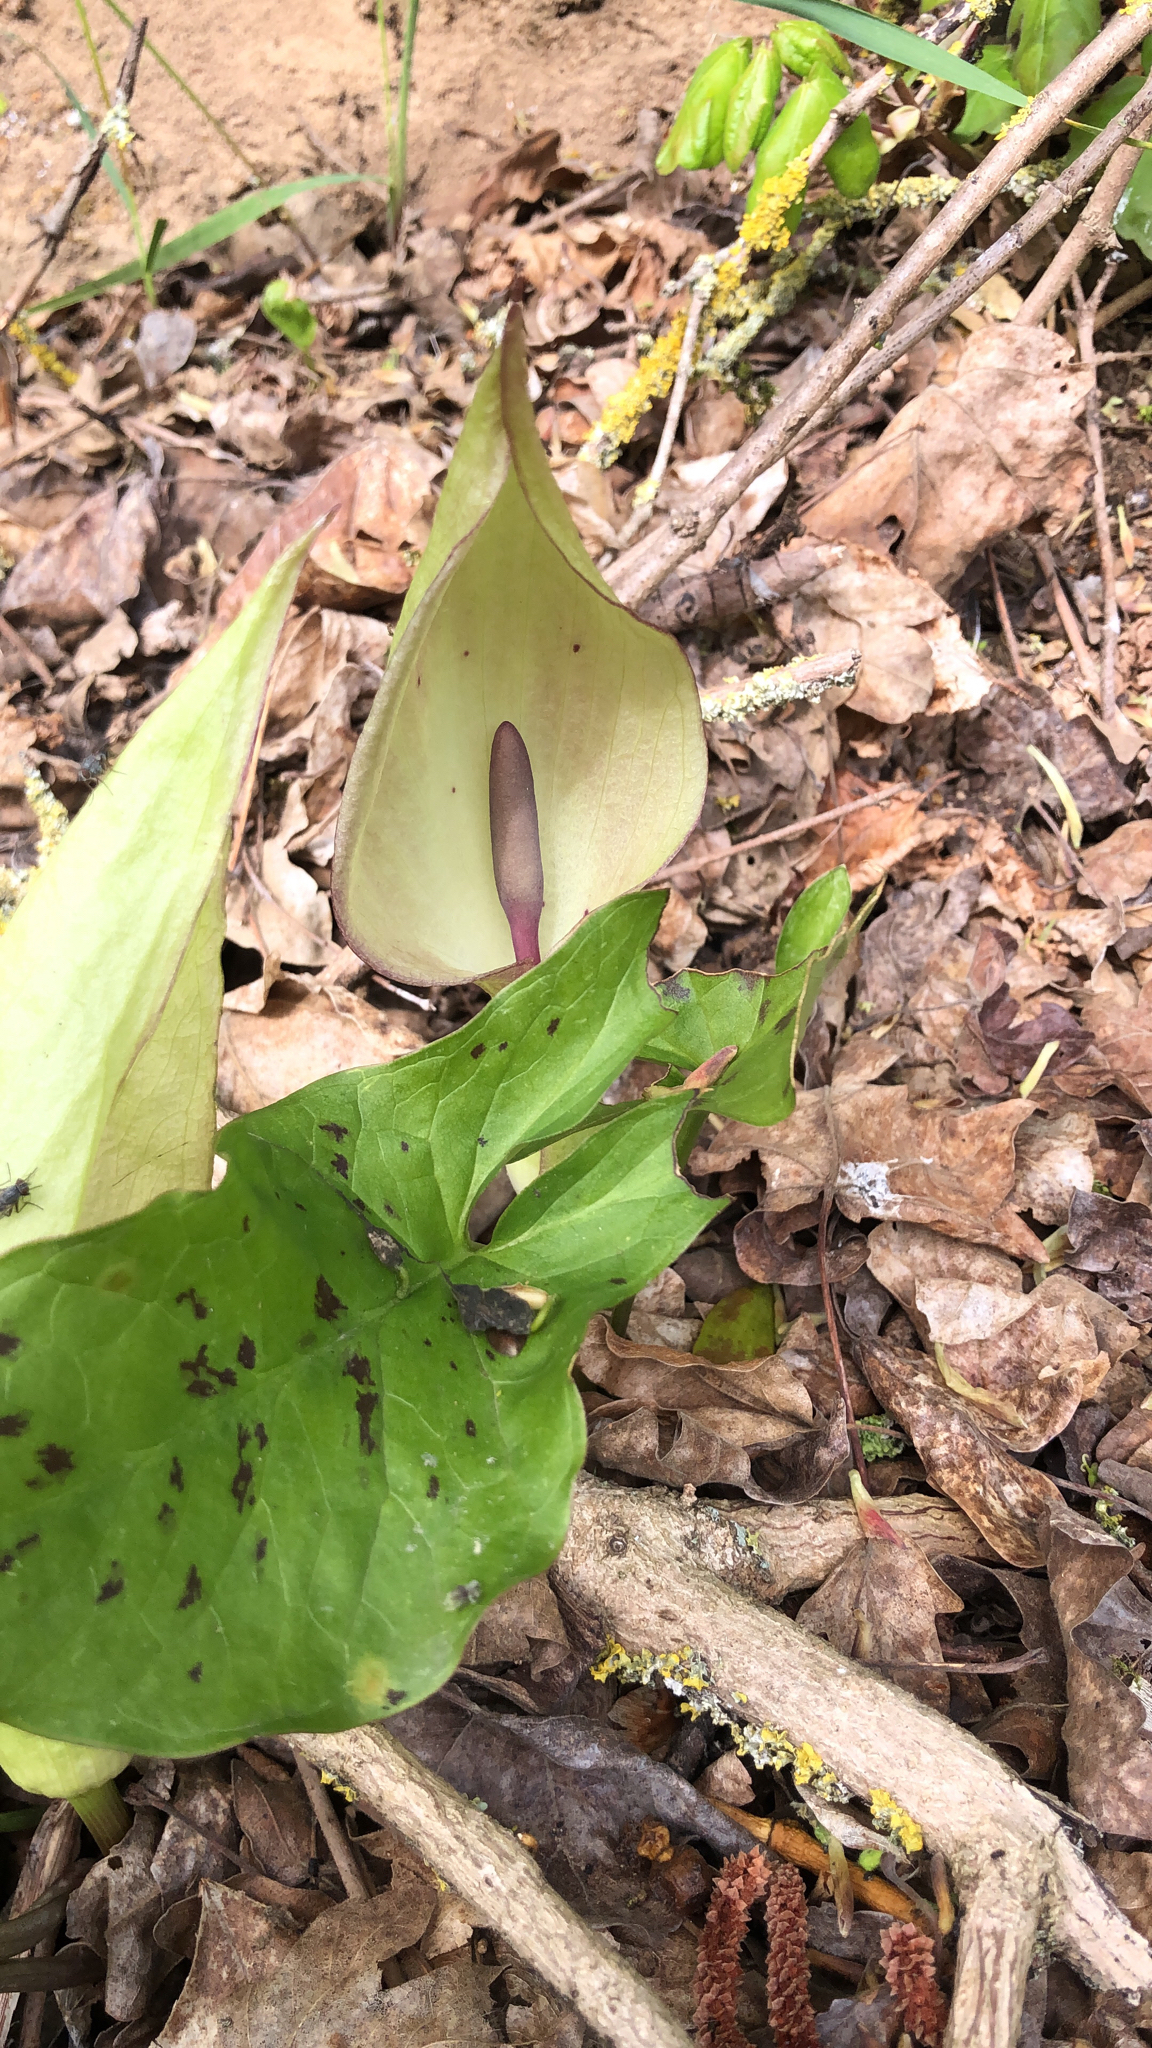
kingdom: Plantae
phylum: Tracheophyta
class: Liliopsida
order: Alismatales
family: Araceae
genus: Arum
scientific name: Arum maculatum
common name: Lords-and-ladies
